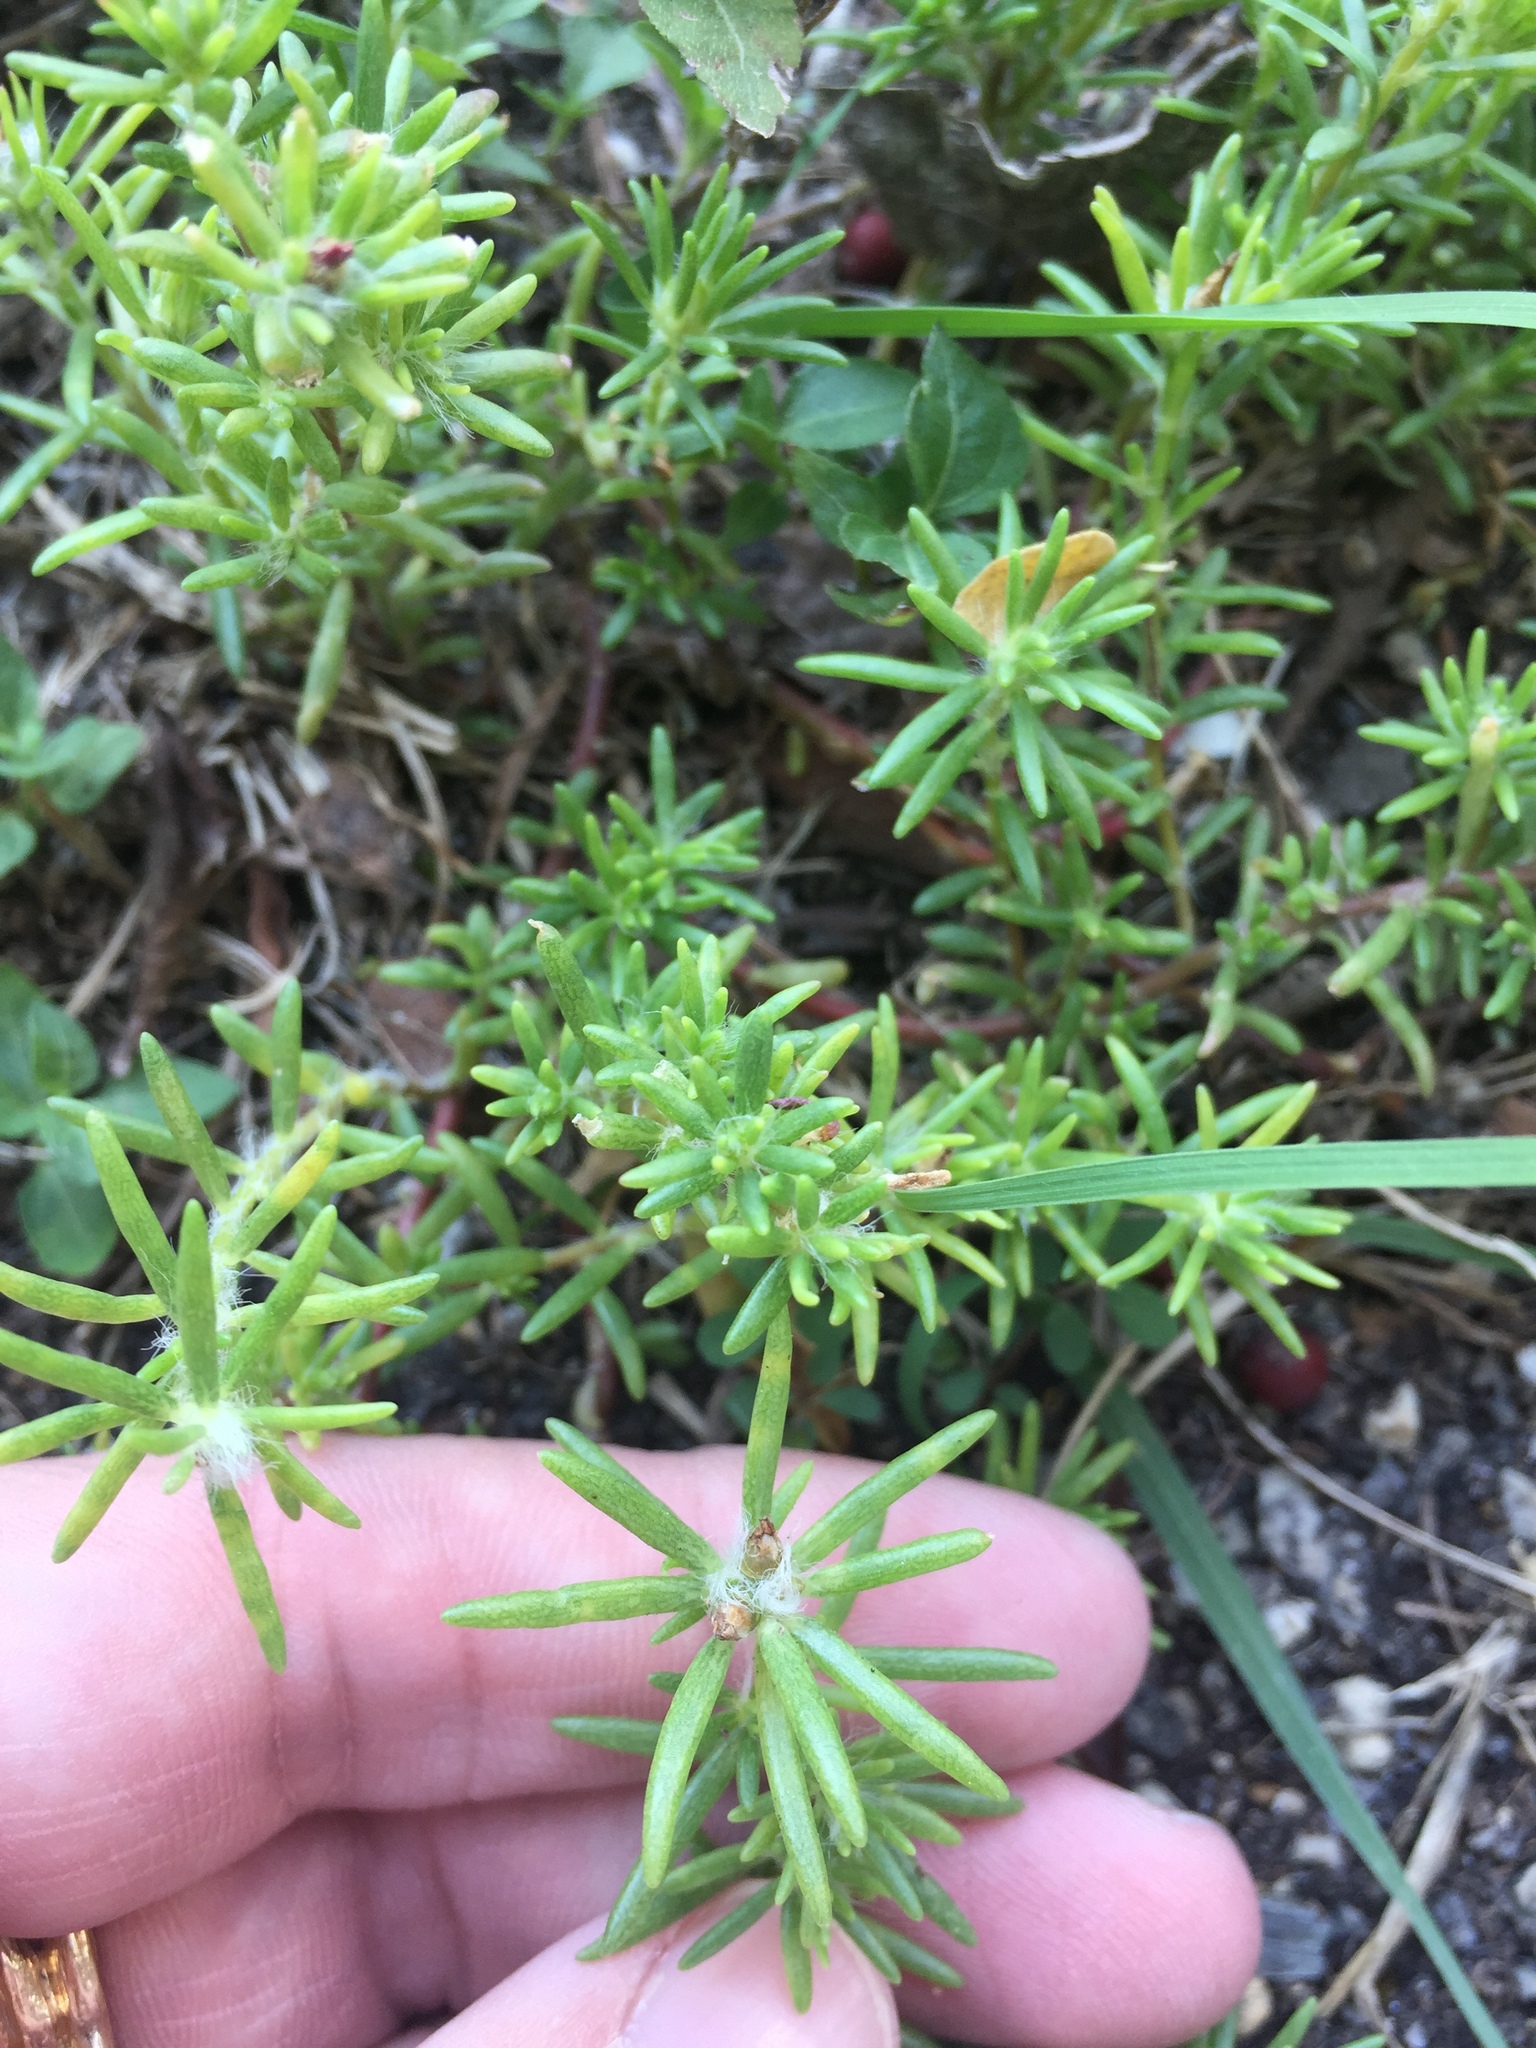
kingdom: Plantae
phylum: Tracheophyta
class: Magnoliopsida
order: Caryophyllales
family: Portulacaceae
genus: Portulaca
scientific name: Portulaca pilosa
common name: Kiss me quick
